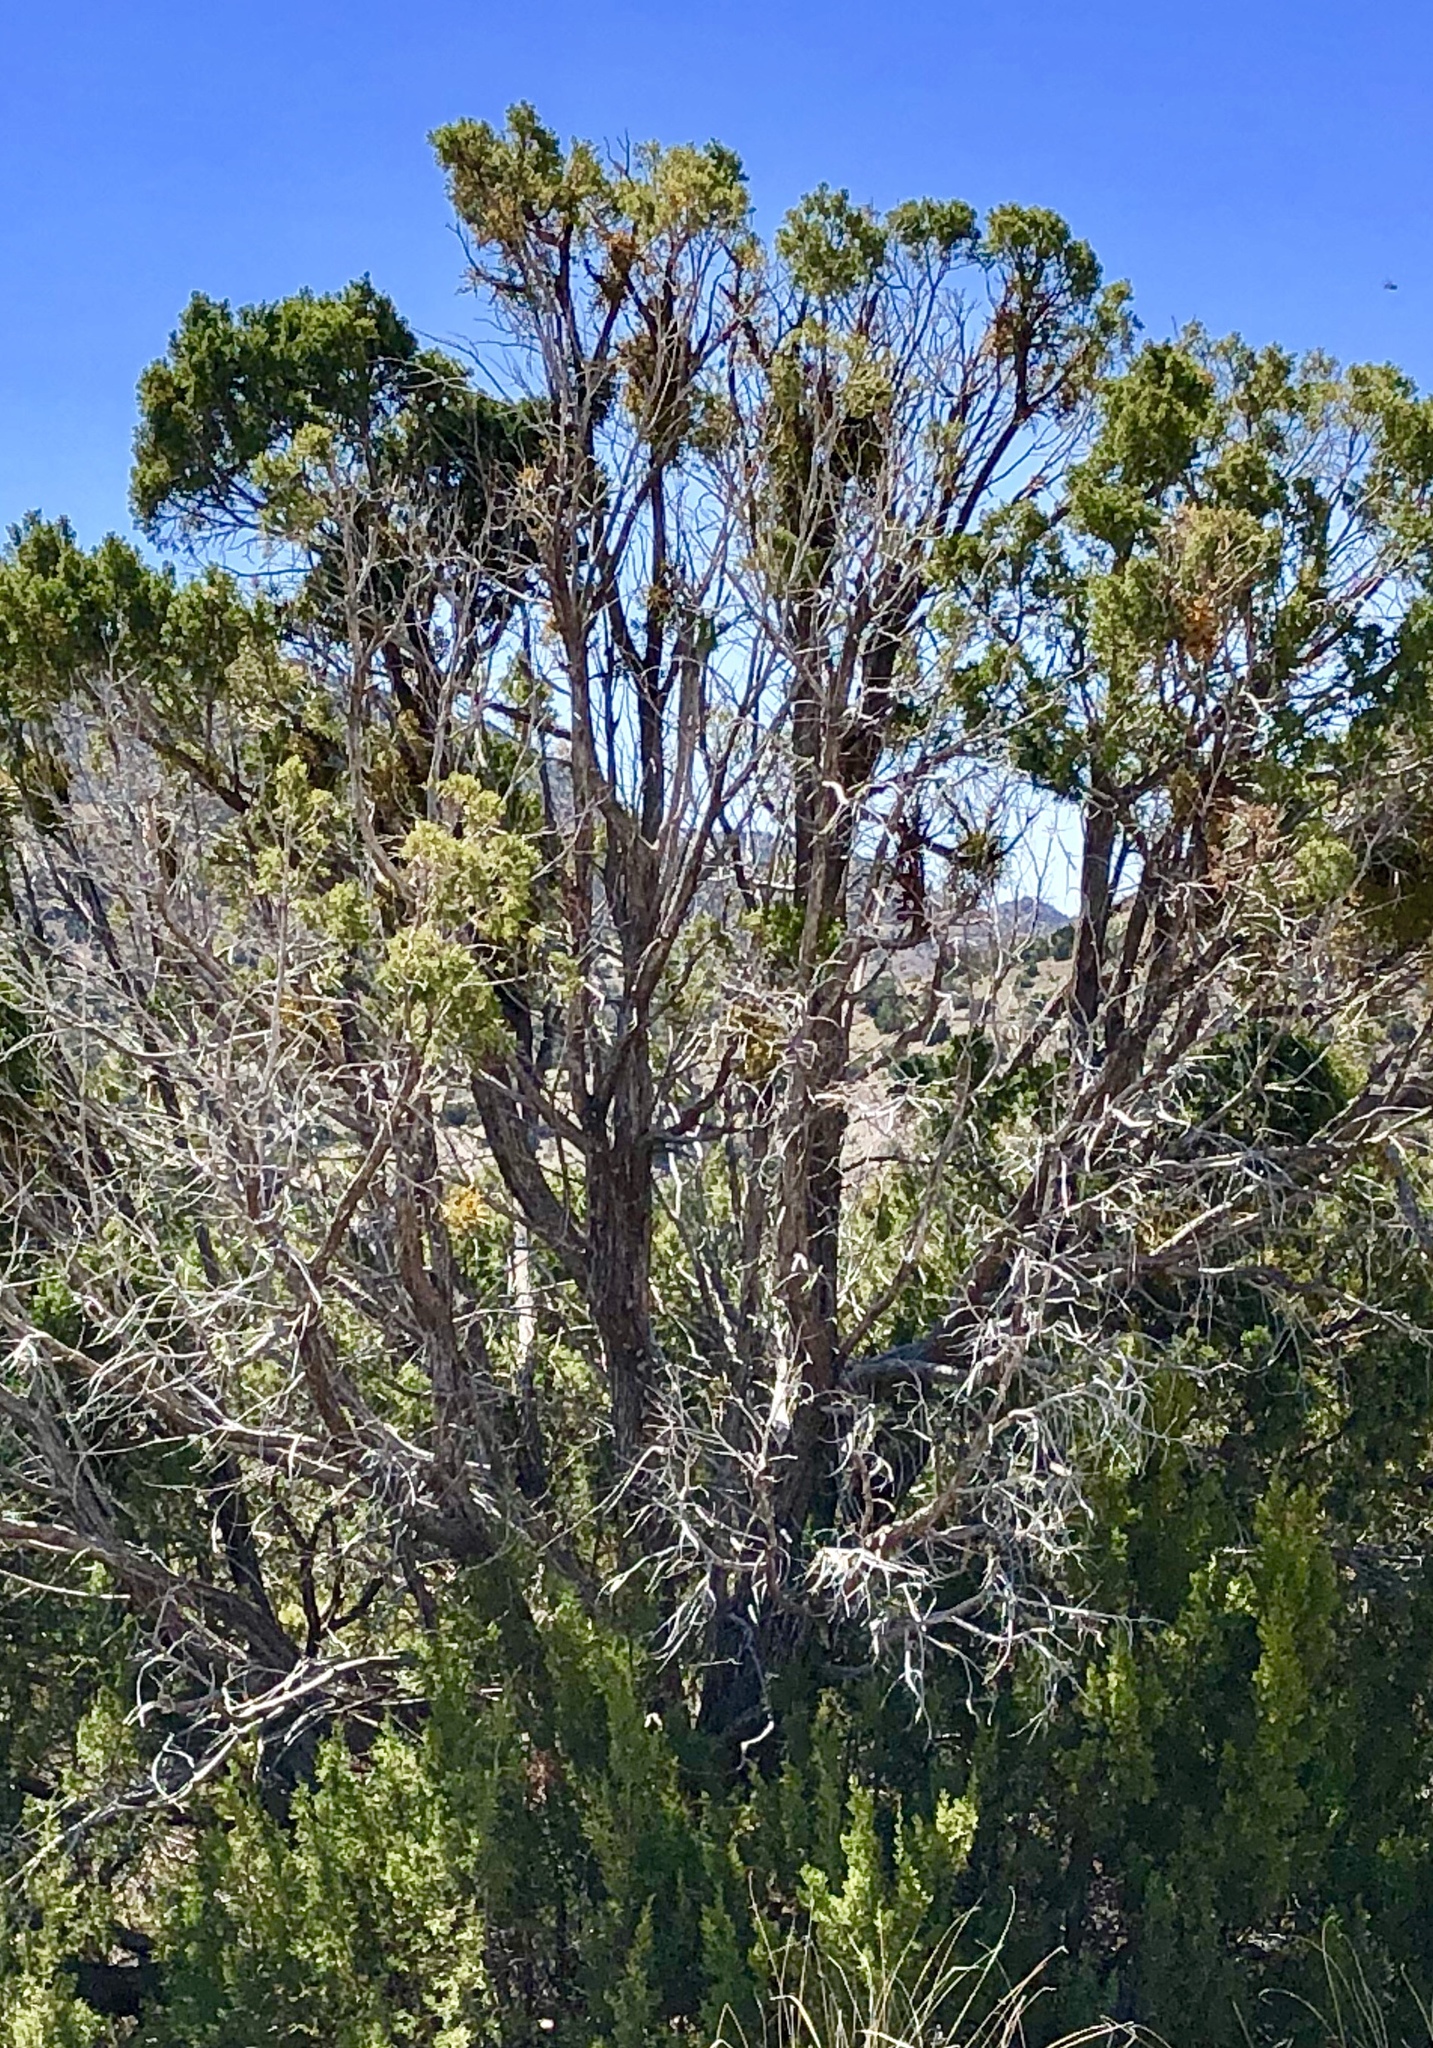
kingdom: Plantae
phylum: Tracheophyta
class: Pinopsida
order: Pinales
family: Cupressaceae
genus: Juniperus
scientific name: Juniperus monosperma
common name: One-seed juniper
